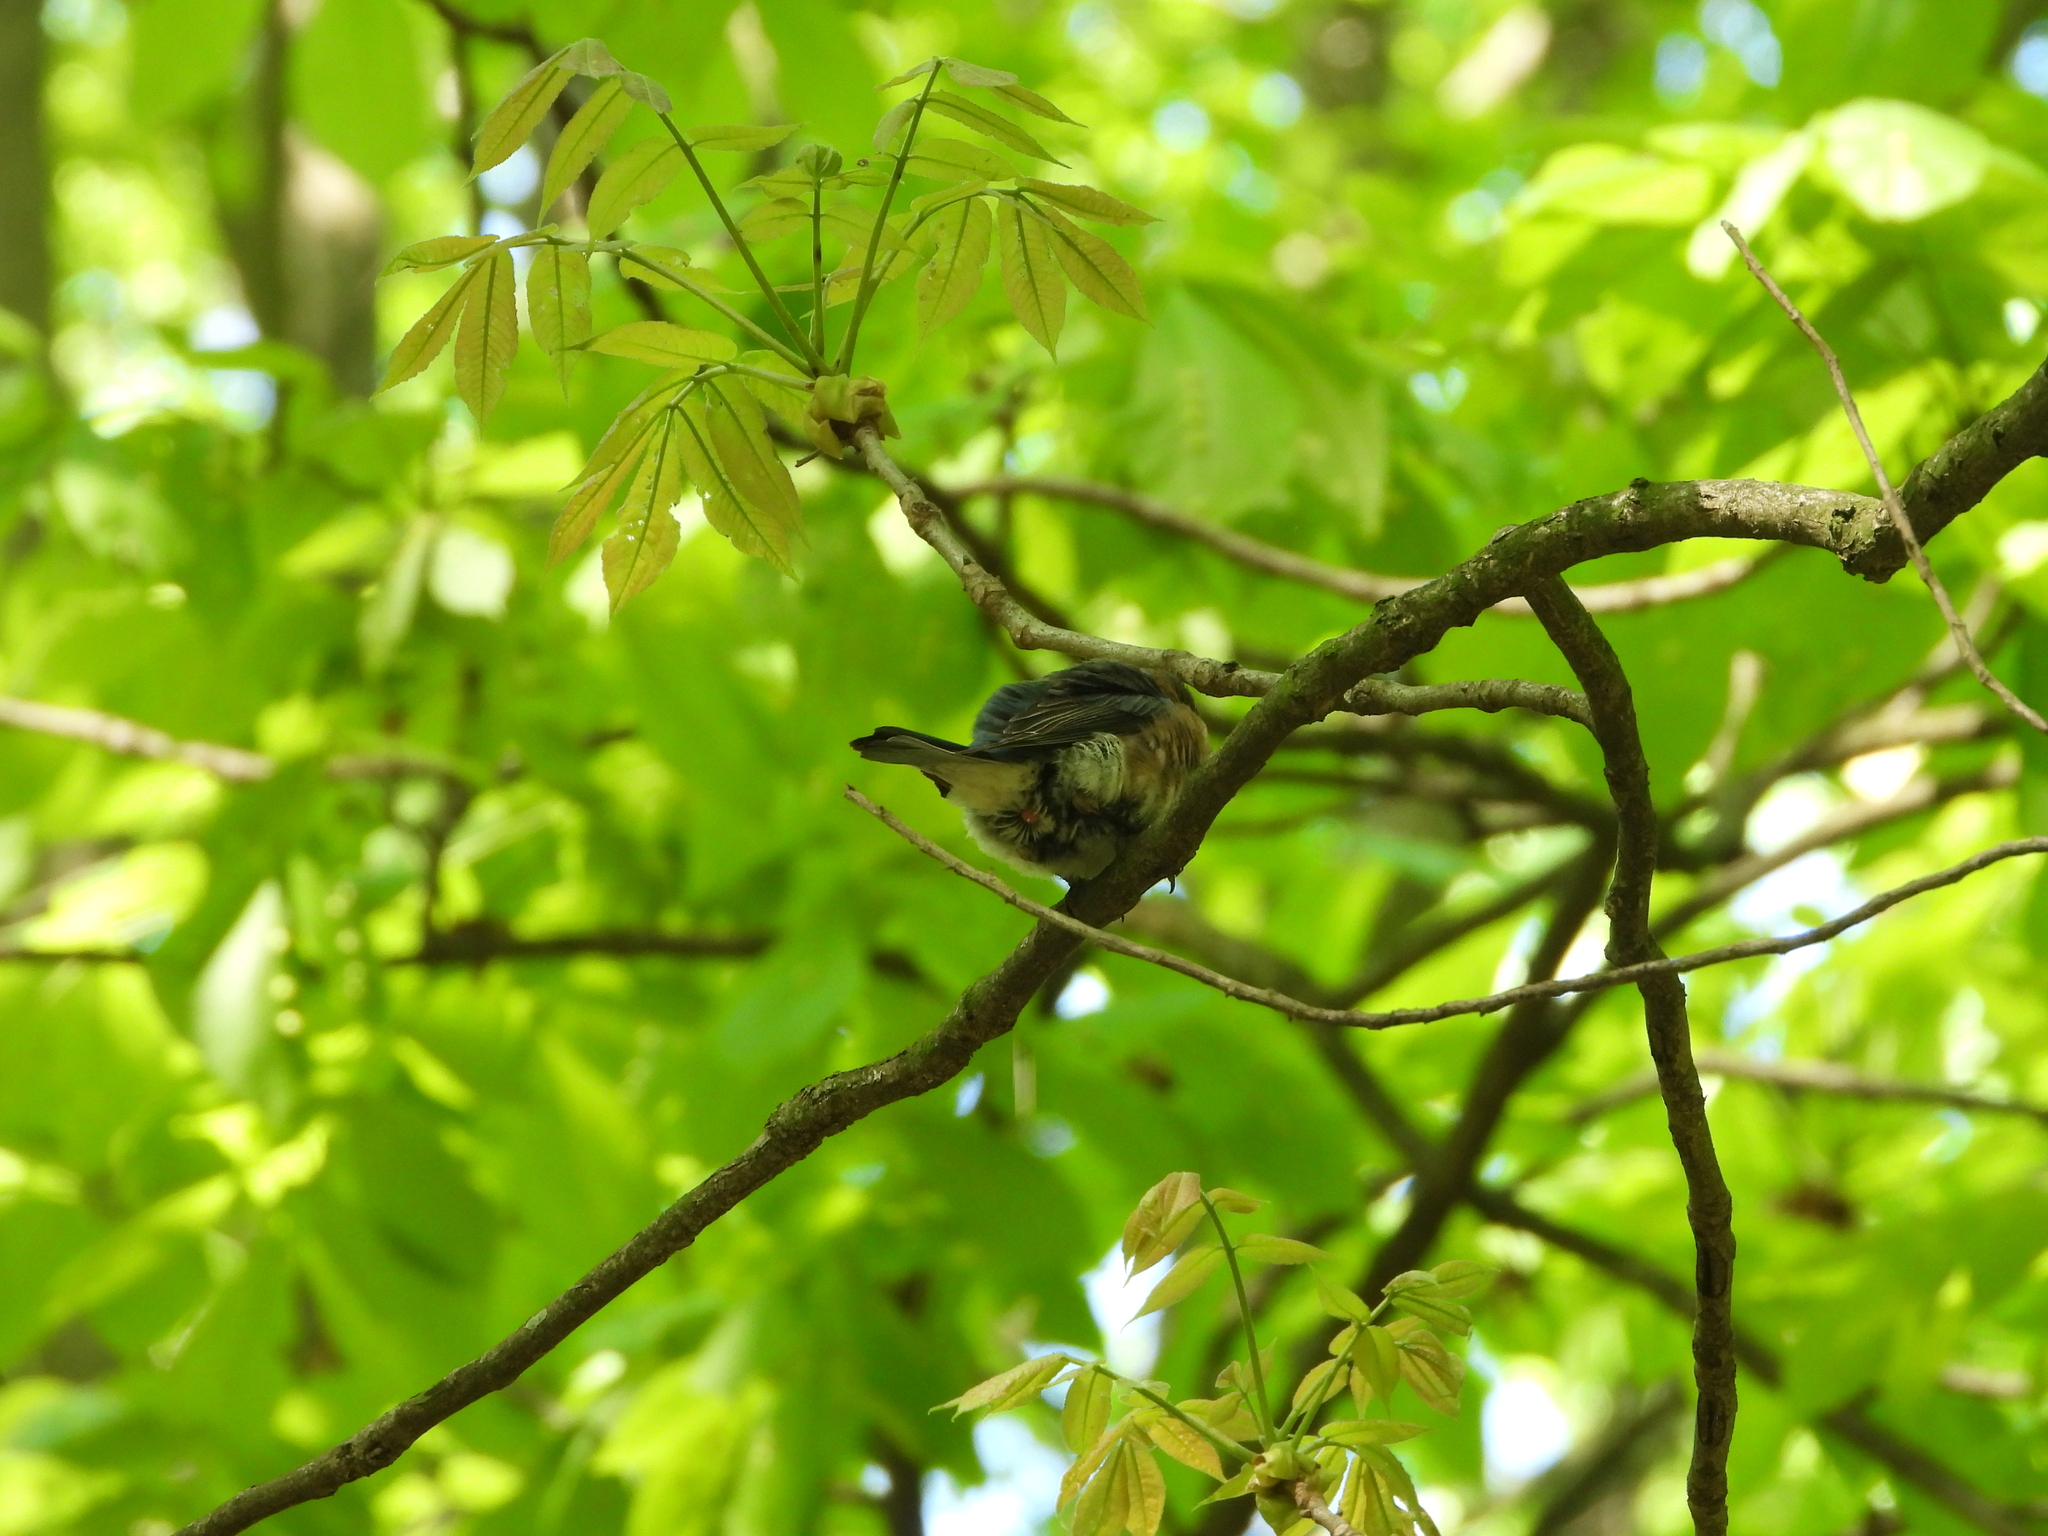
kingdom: Animalia
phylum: Chordata
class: Aves
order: Passeriformes
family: Turdidae
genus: Sialia
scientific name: Sialia sialis
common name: Eastern bluebird
